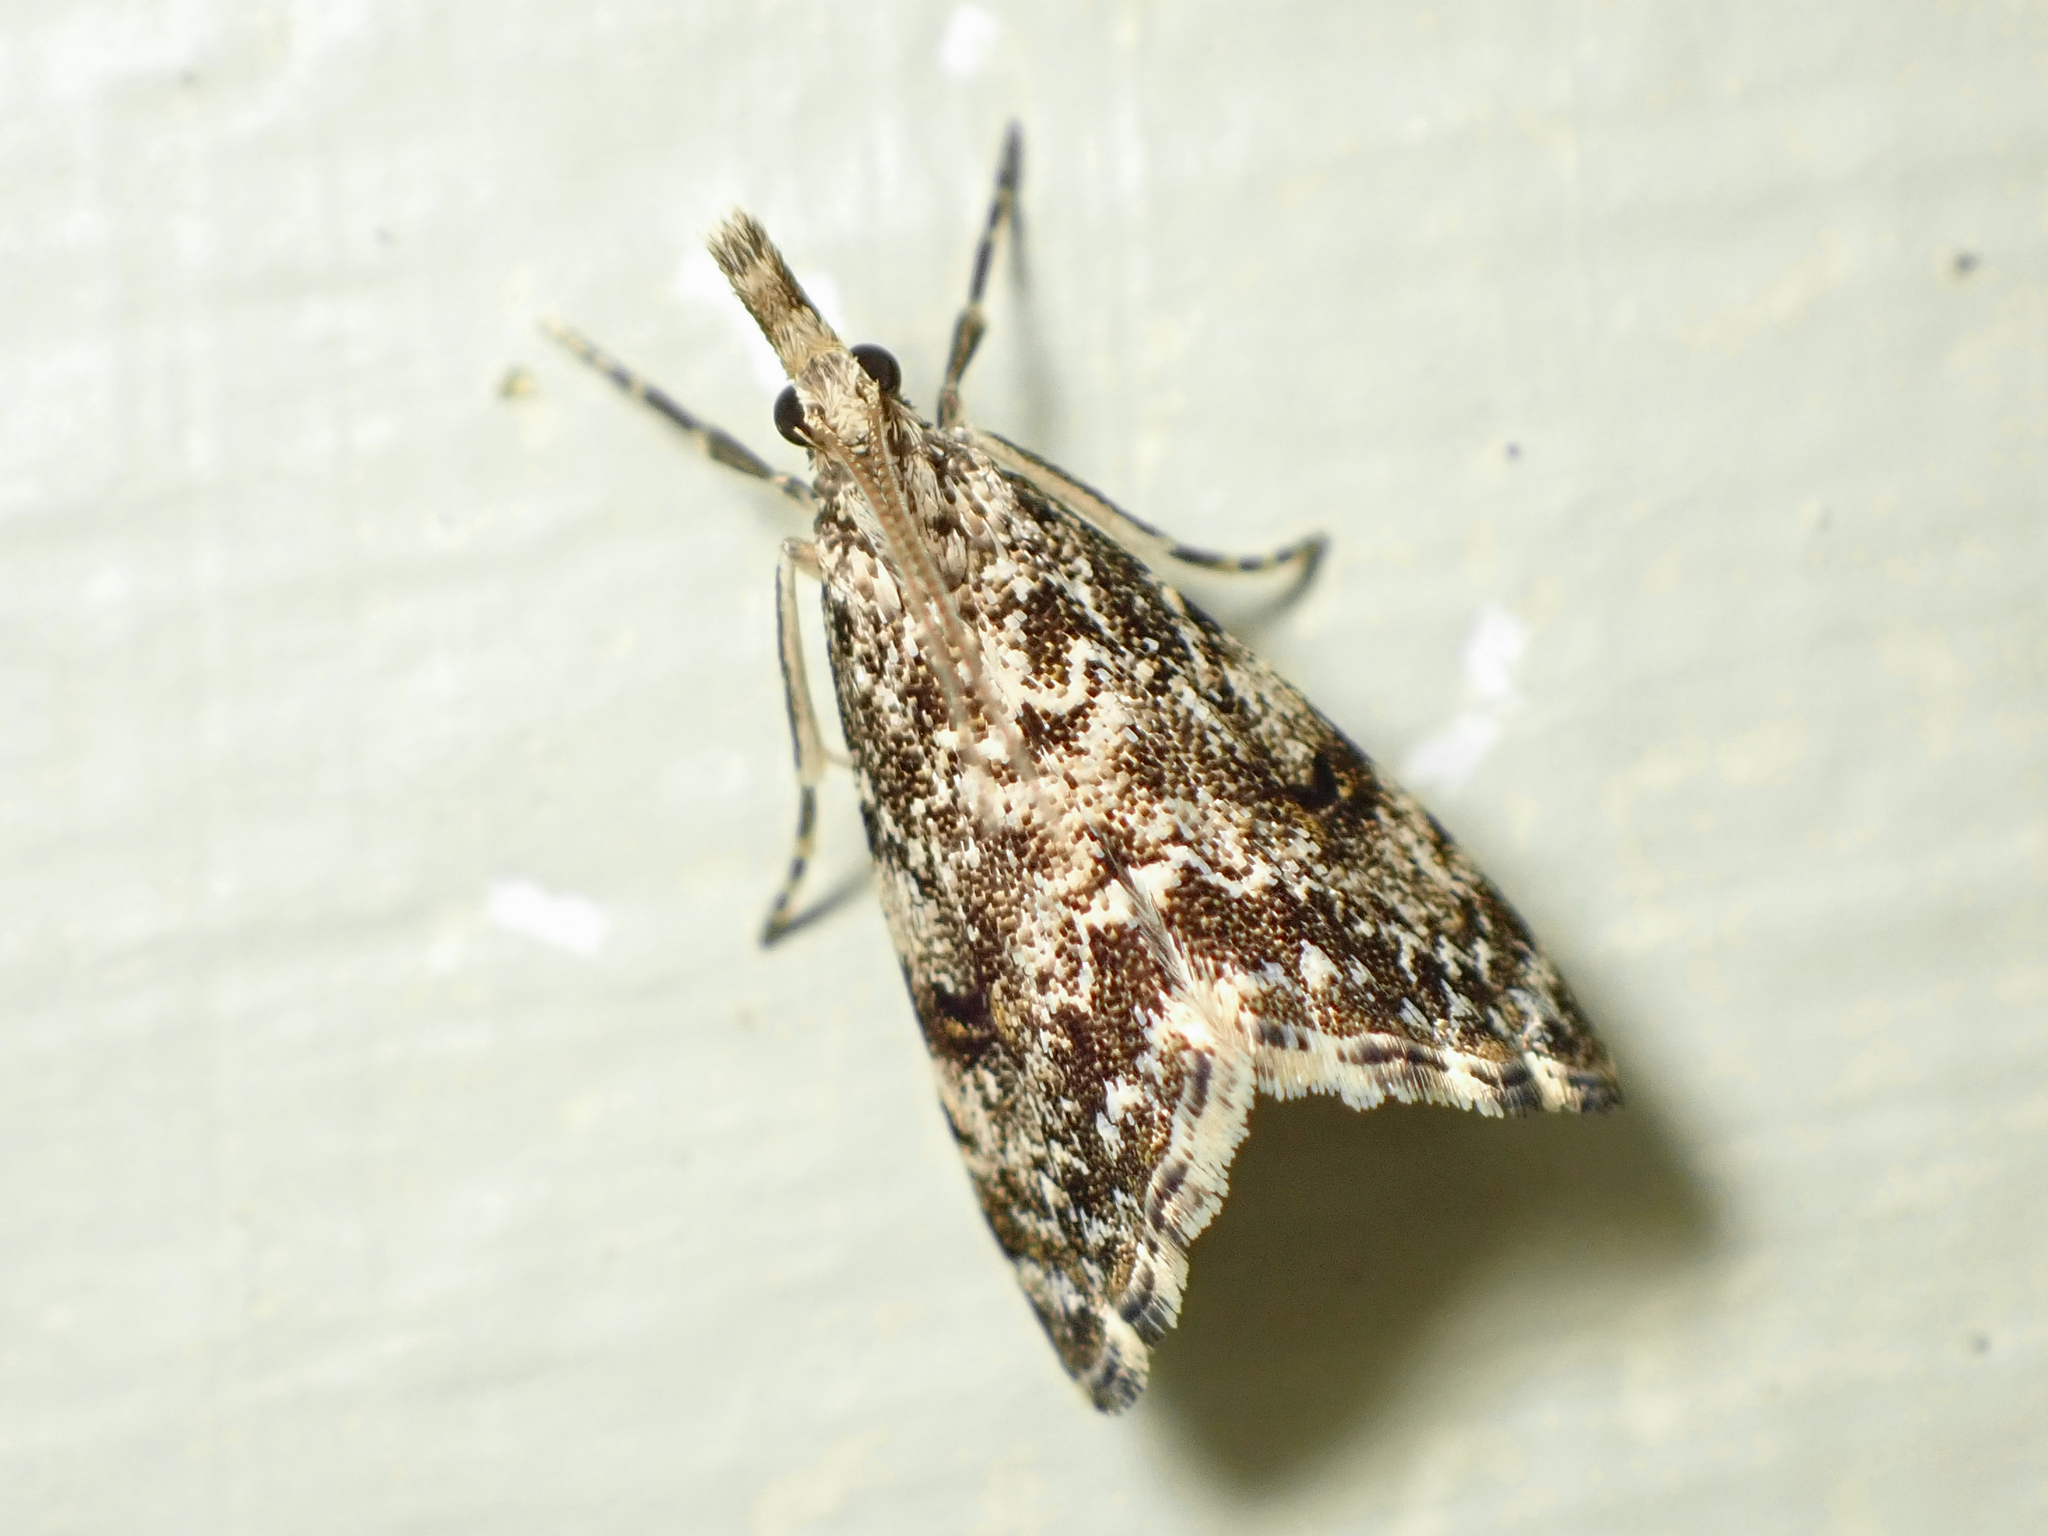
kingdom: Animalia
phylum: Arthropoda
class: Insecta
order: Lepidoptera
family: Crambidae
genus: Glaucocharis
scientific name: Glaucocharis elaina
